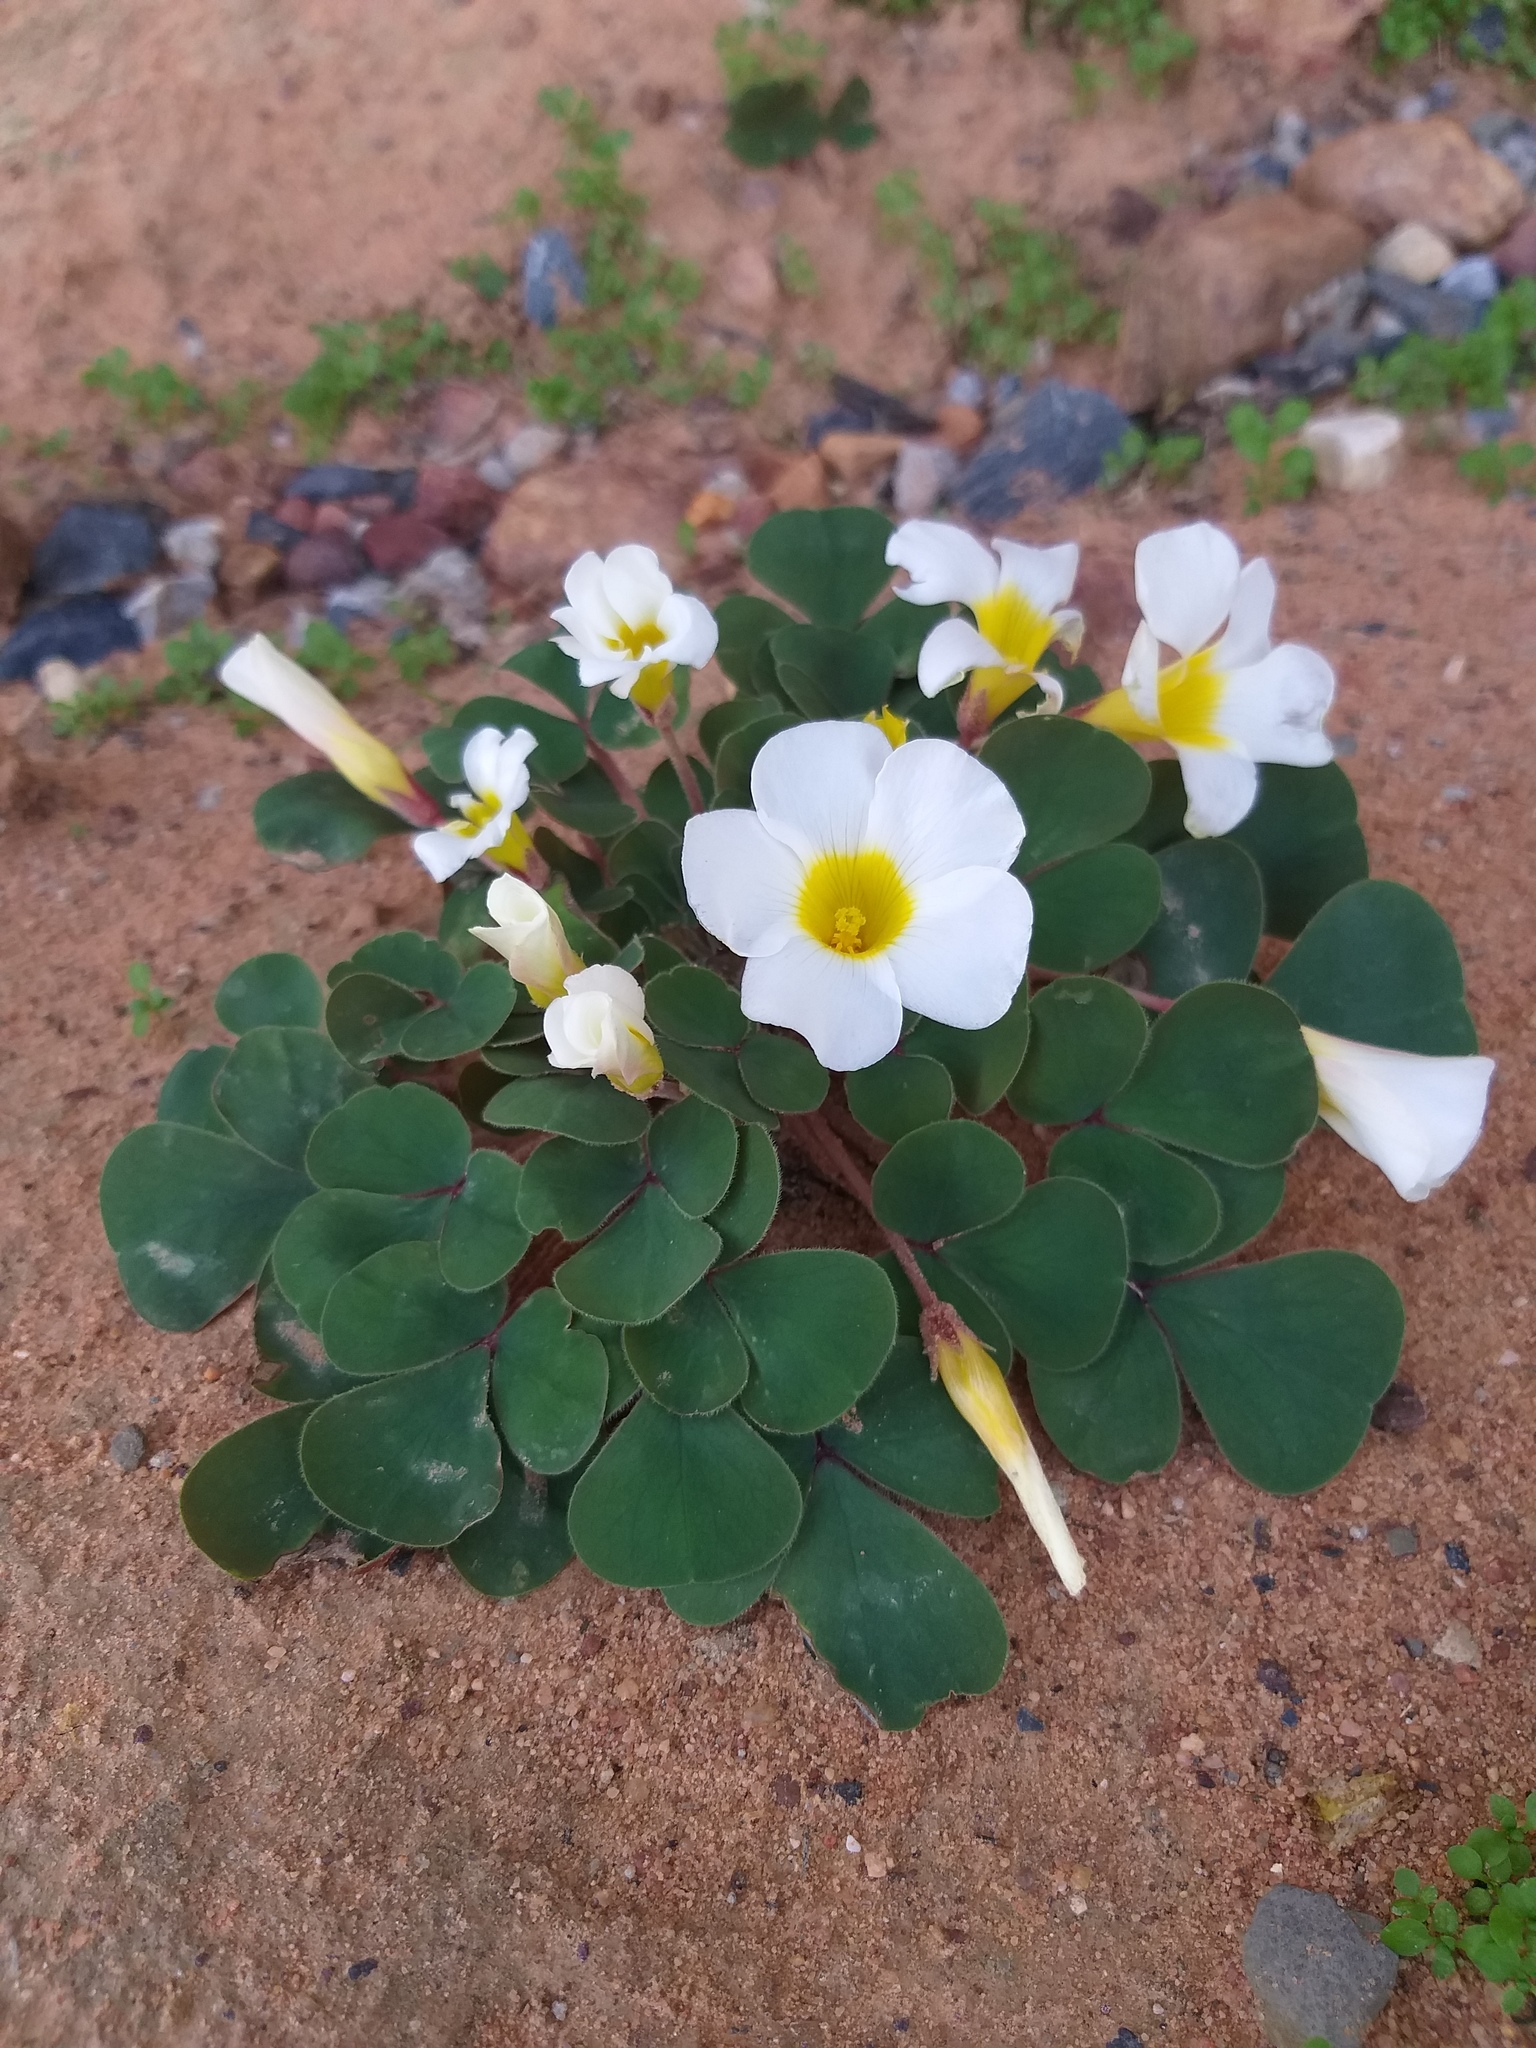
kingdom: Plantae
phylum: Tracheophyta
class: Magnoliopsida
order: Oxalidales
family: Oxalidaceae
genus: Oxalis
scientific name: Oxalis purpurea
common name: Purple woodsorrel
